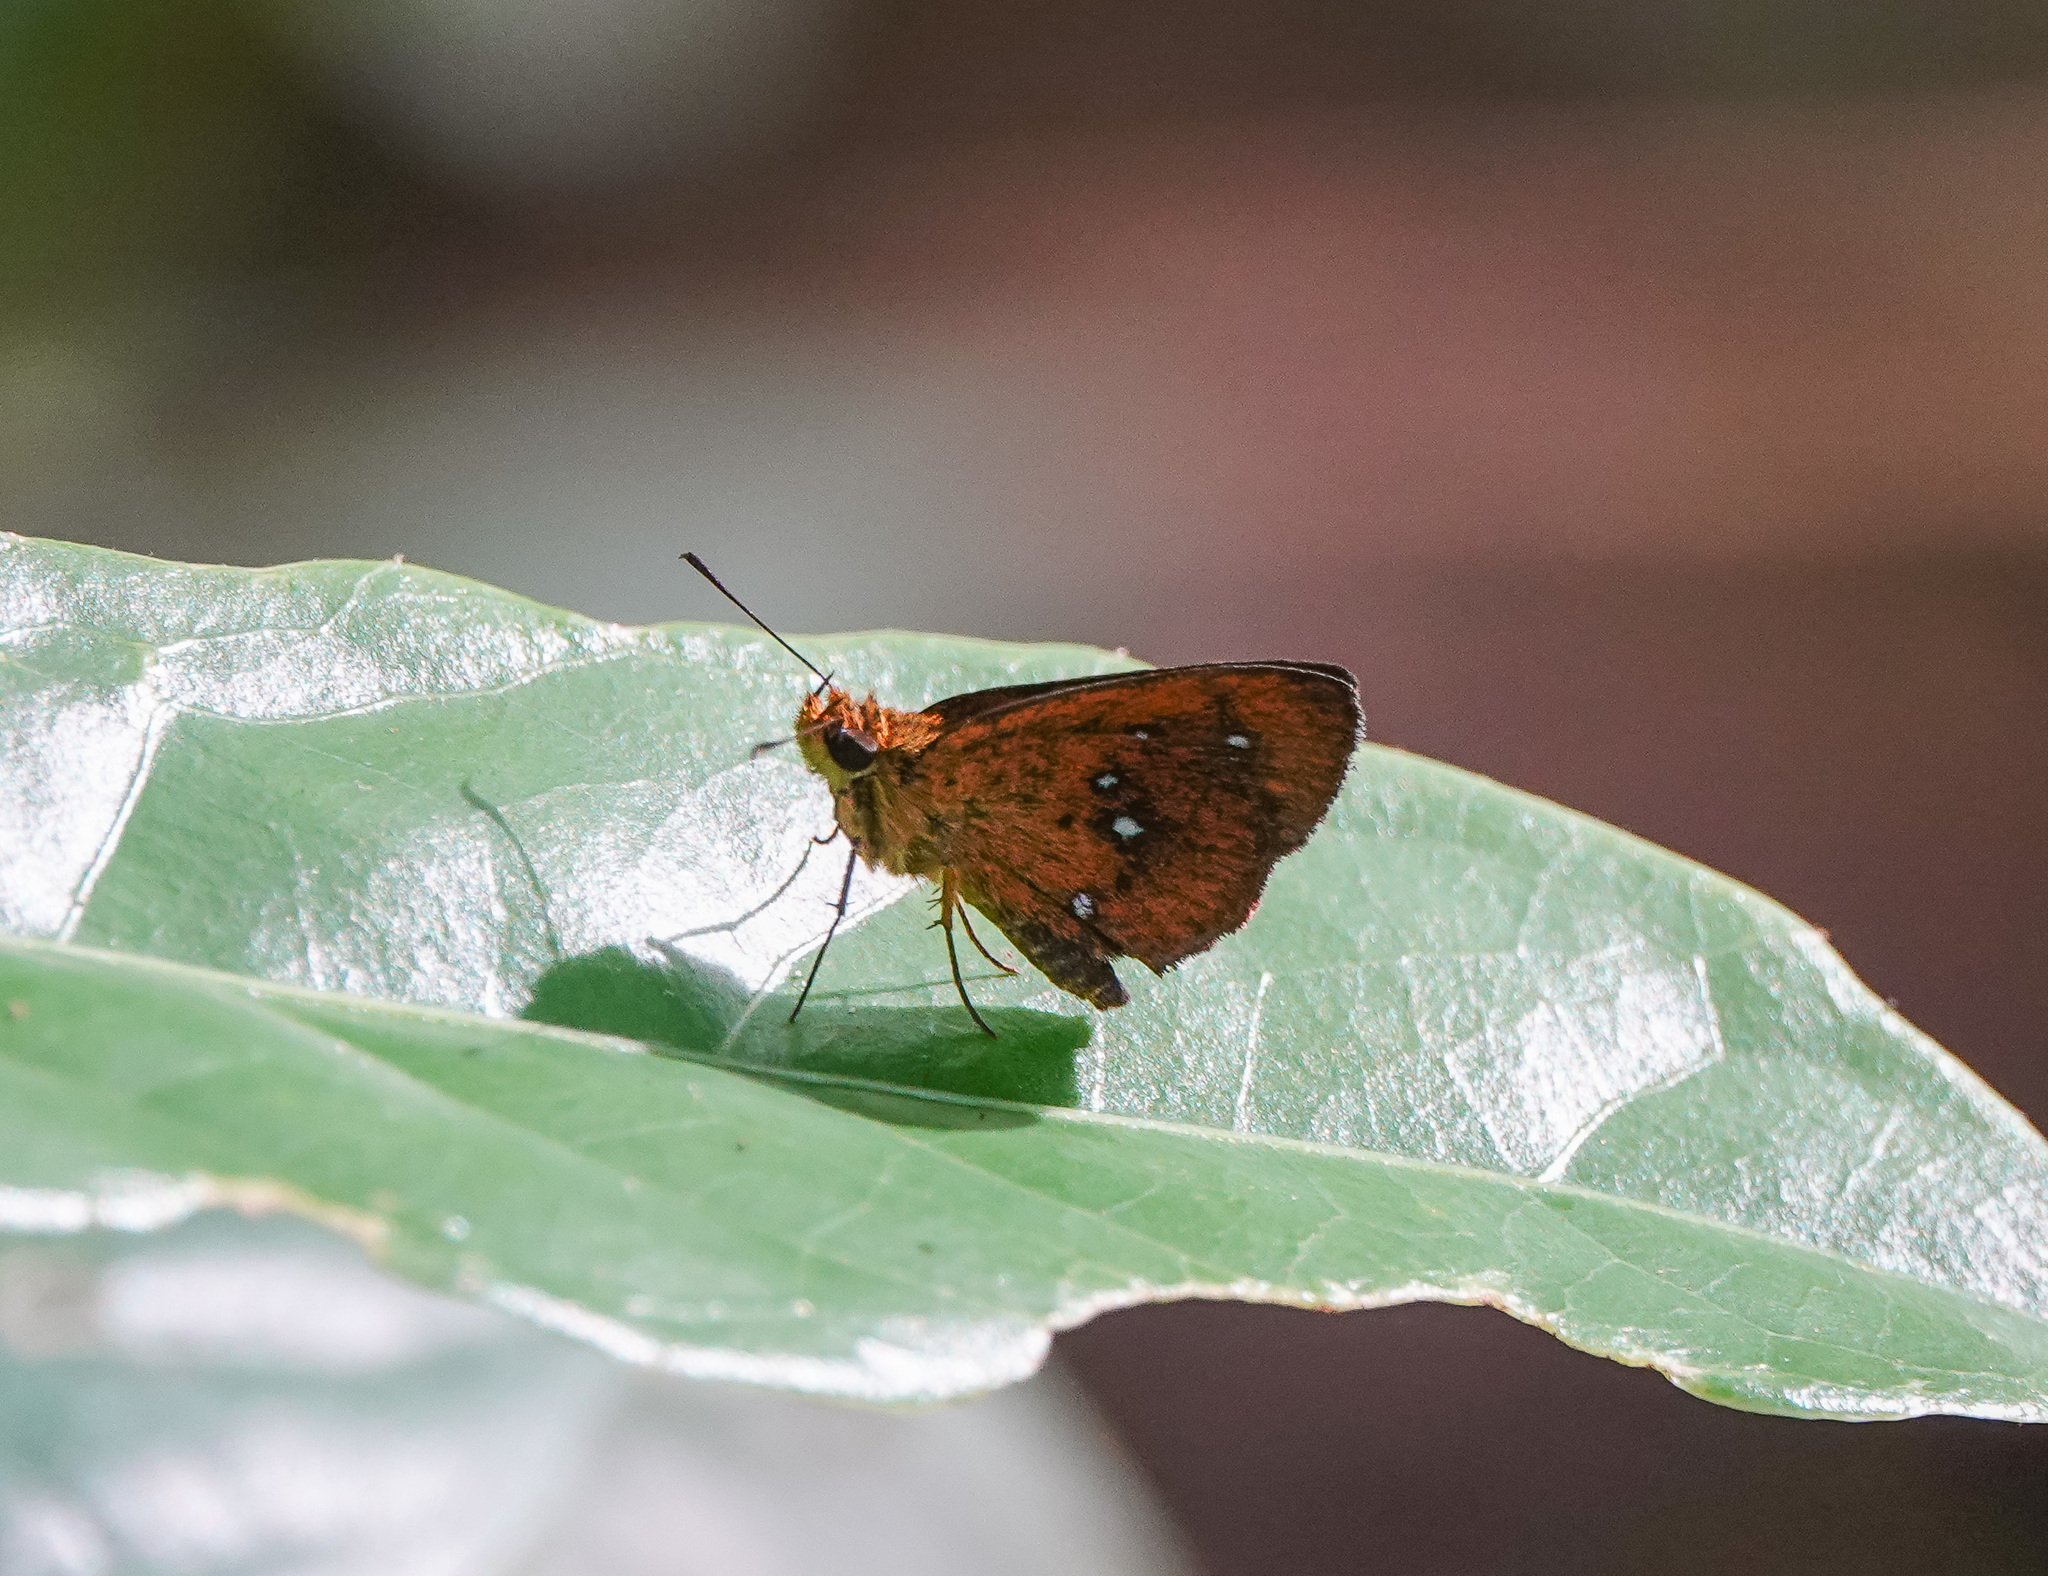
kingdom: Animalia
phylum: Arthropoda
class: Insecta
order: Lepidoptera
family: Hesperiidae
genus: Iambrix
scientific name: Iambrix salsala
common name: Chestnut bob
